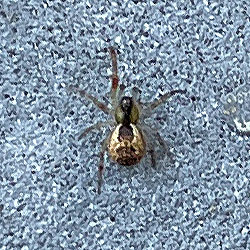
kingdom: Animalia
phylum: Arthropoda
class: Arachnida
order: Araneae
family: Theridiidae
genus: Anelosimus
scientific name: Anelosimus vittatus
